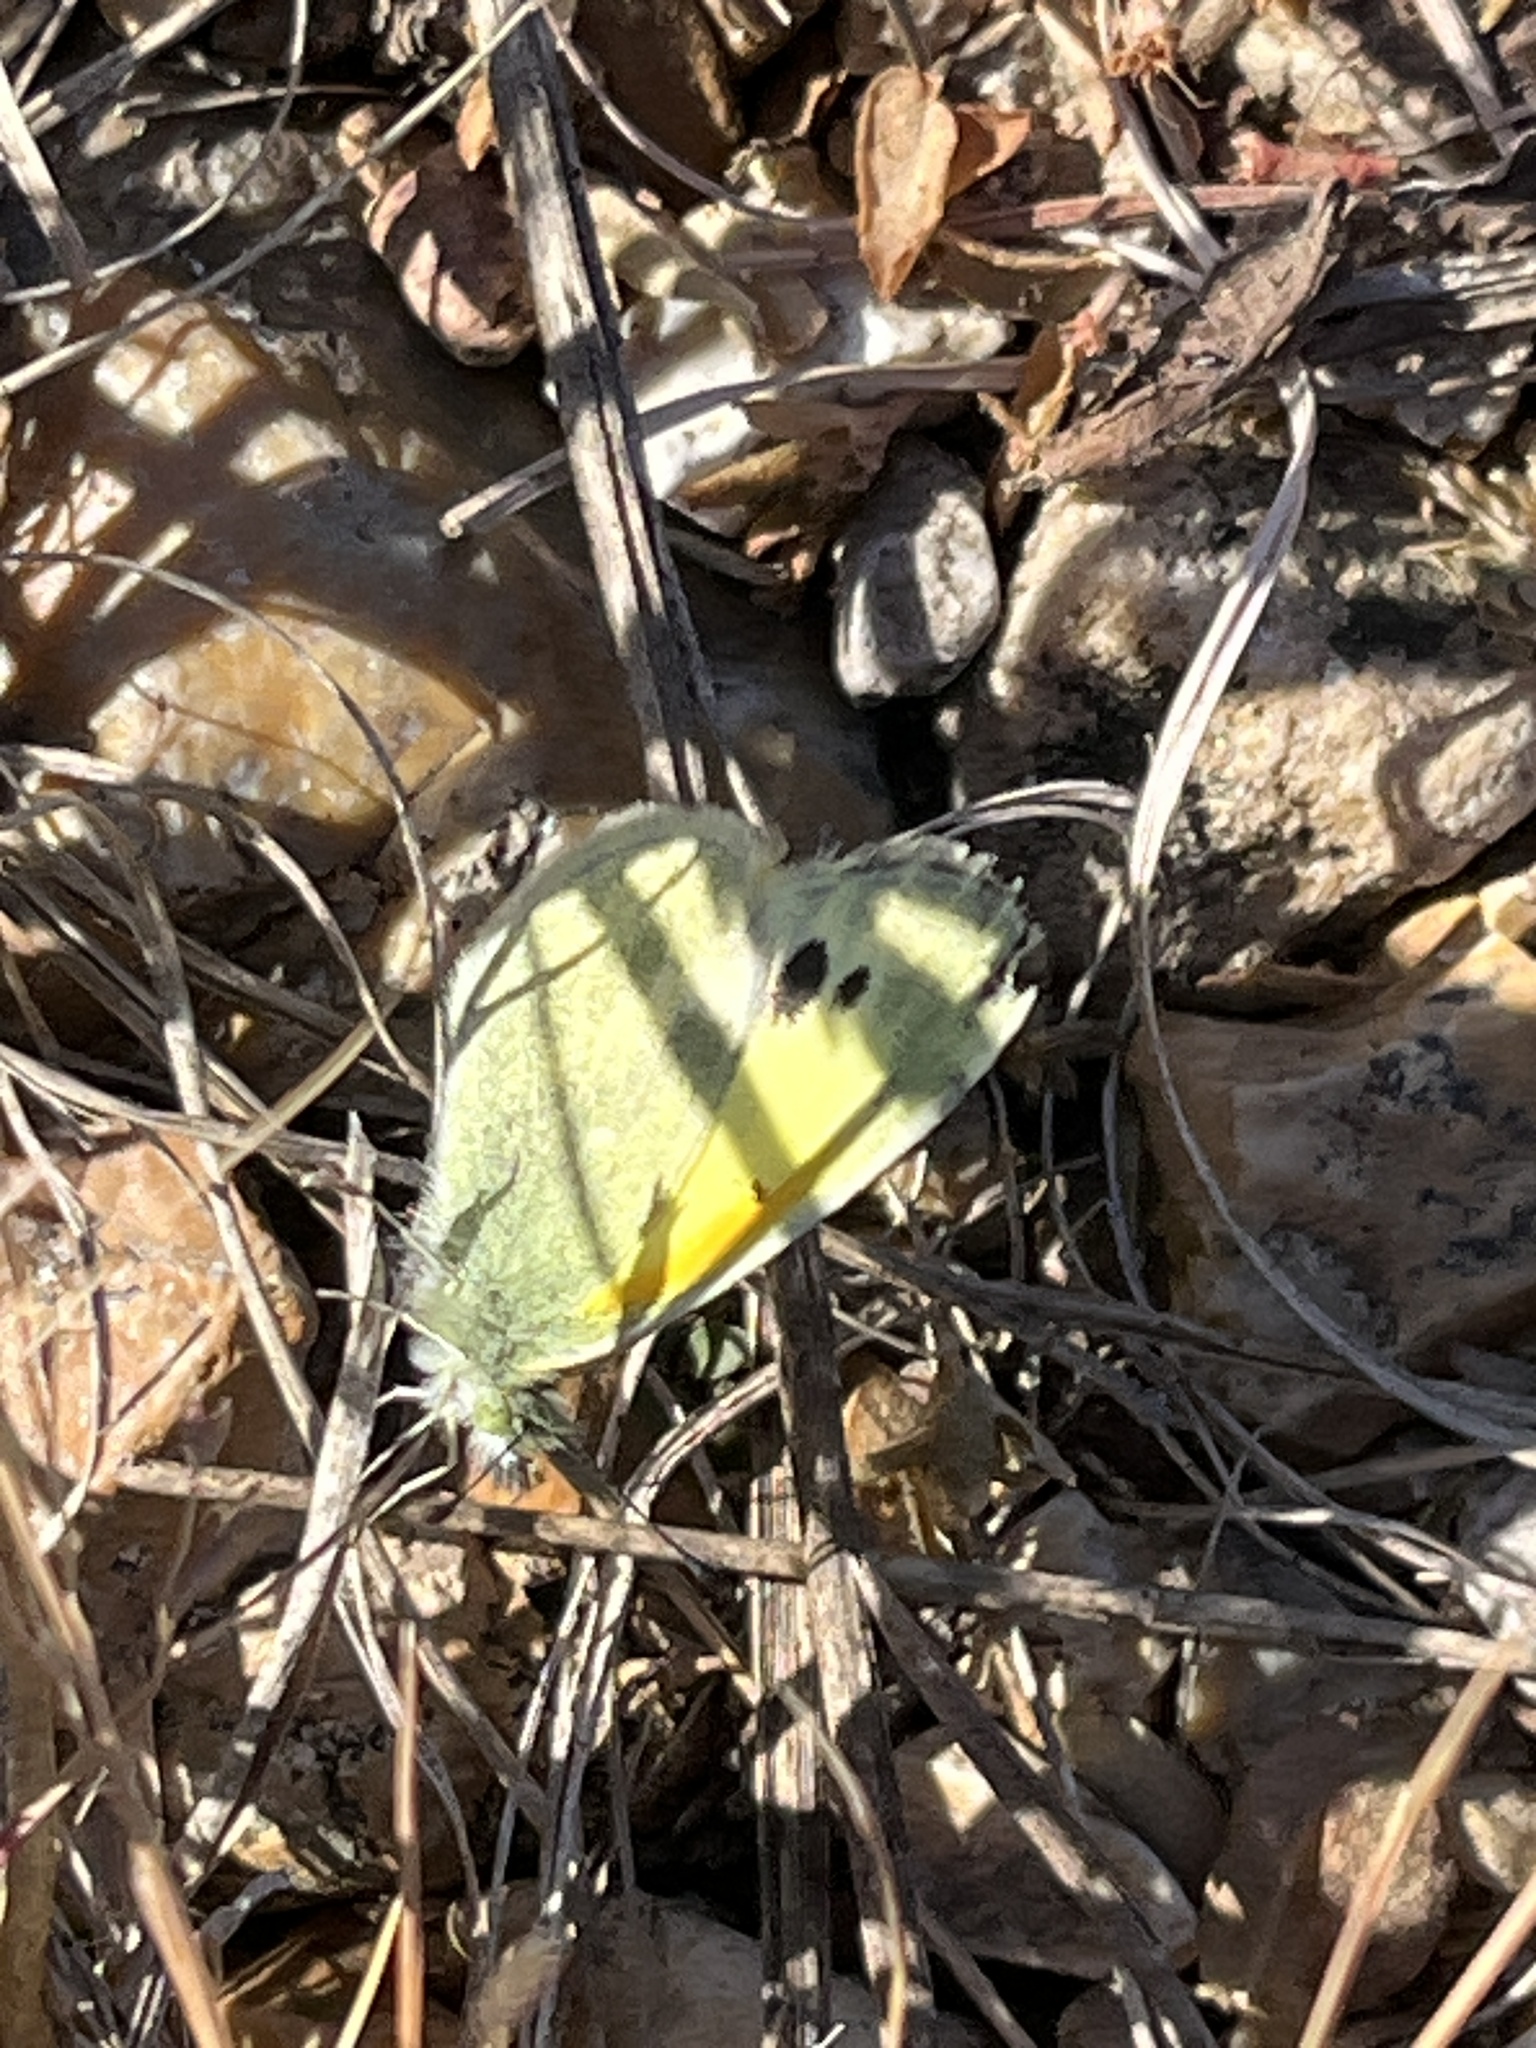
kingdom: Animalia
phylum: Arthropoda
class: Insecta
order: Lepidoptera
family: Pieridae
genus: Nathalis
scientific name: Nathalis iole
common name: Dainty sulphur
